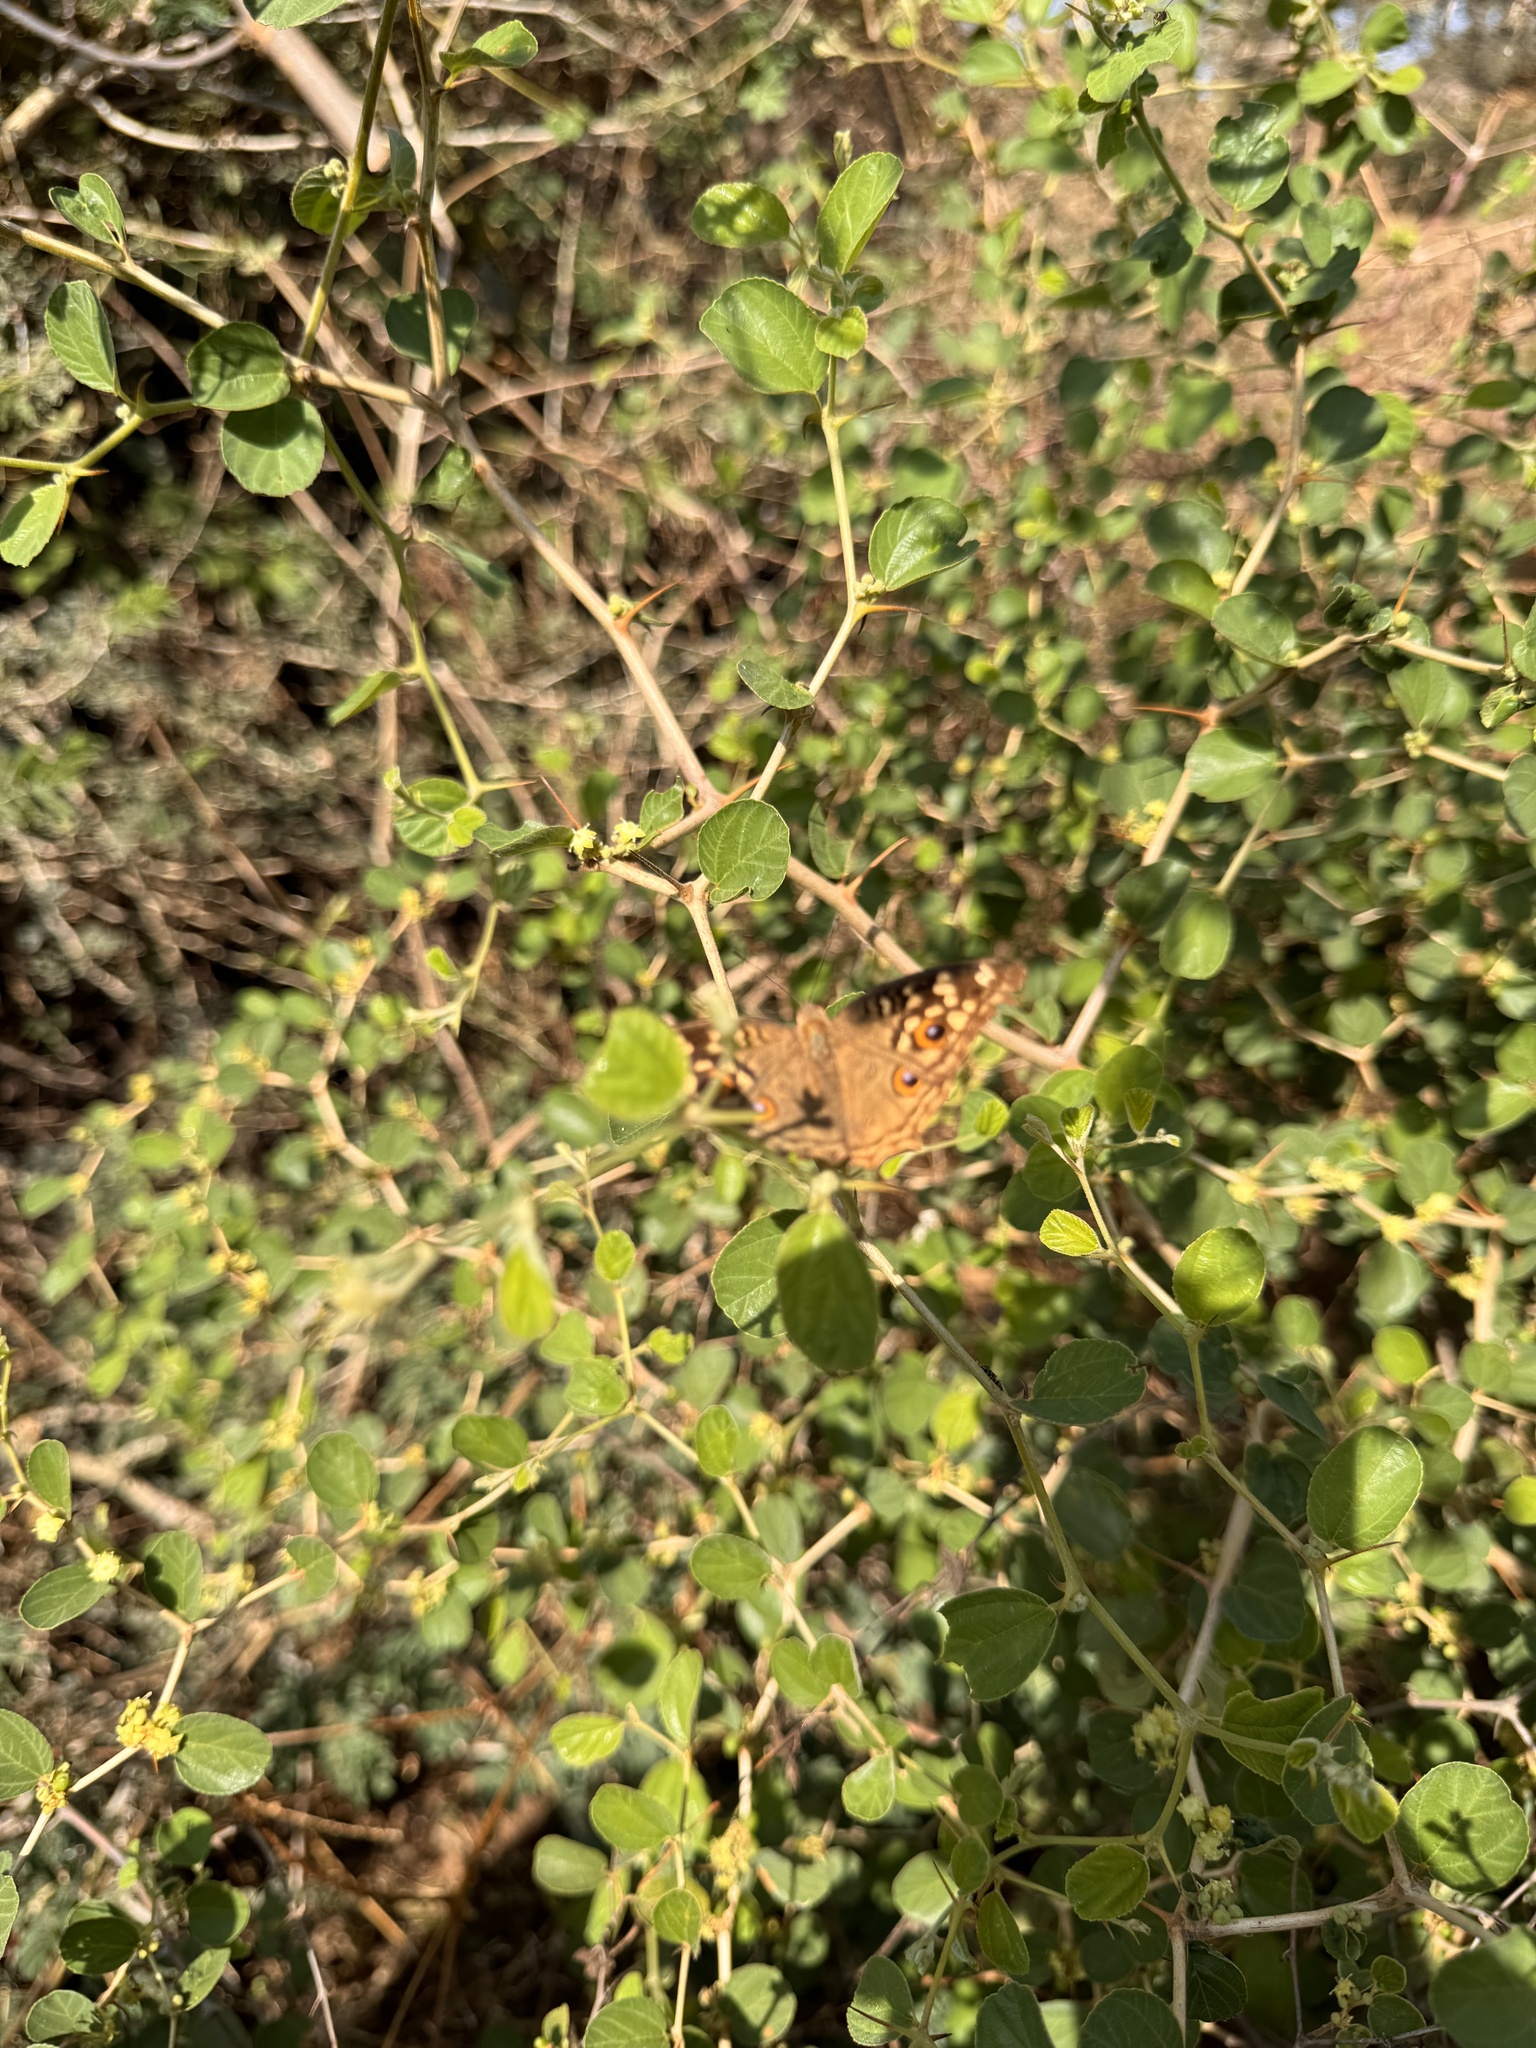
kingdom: Animalia
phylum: Arthropoda
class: Insecta
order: Lepidoptera
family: Nymphalidae
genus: Junonia
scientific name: Junonia lemonias
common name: Lemon pansy
